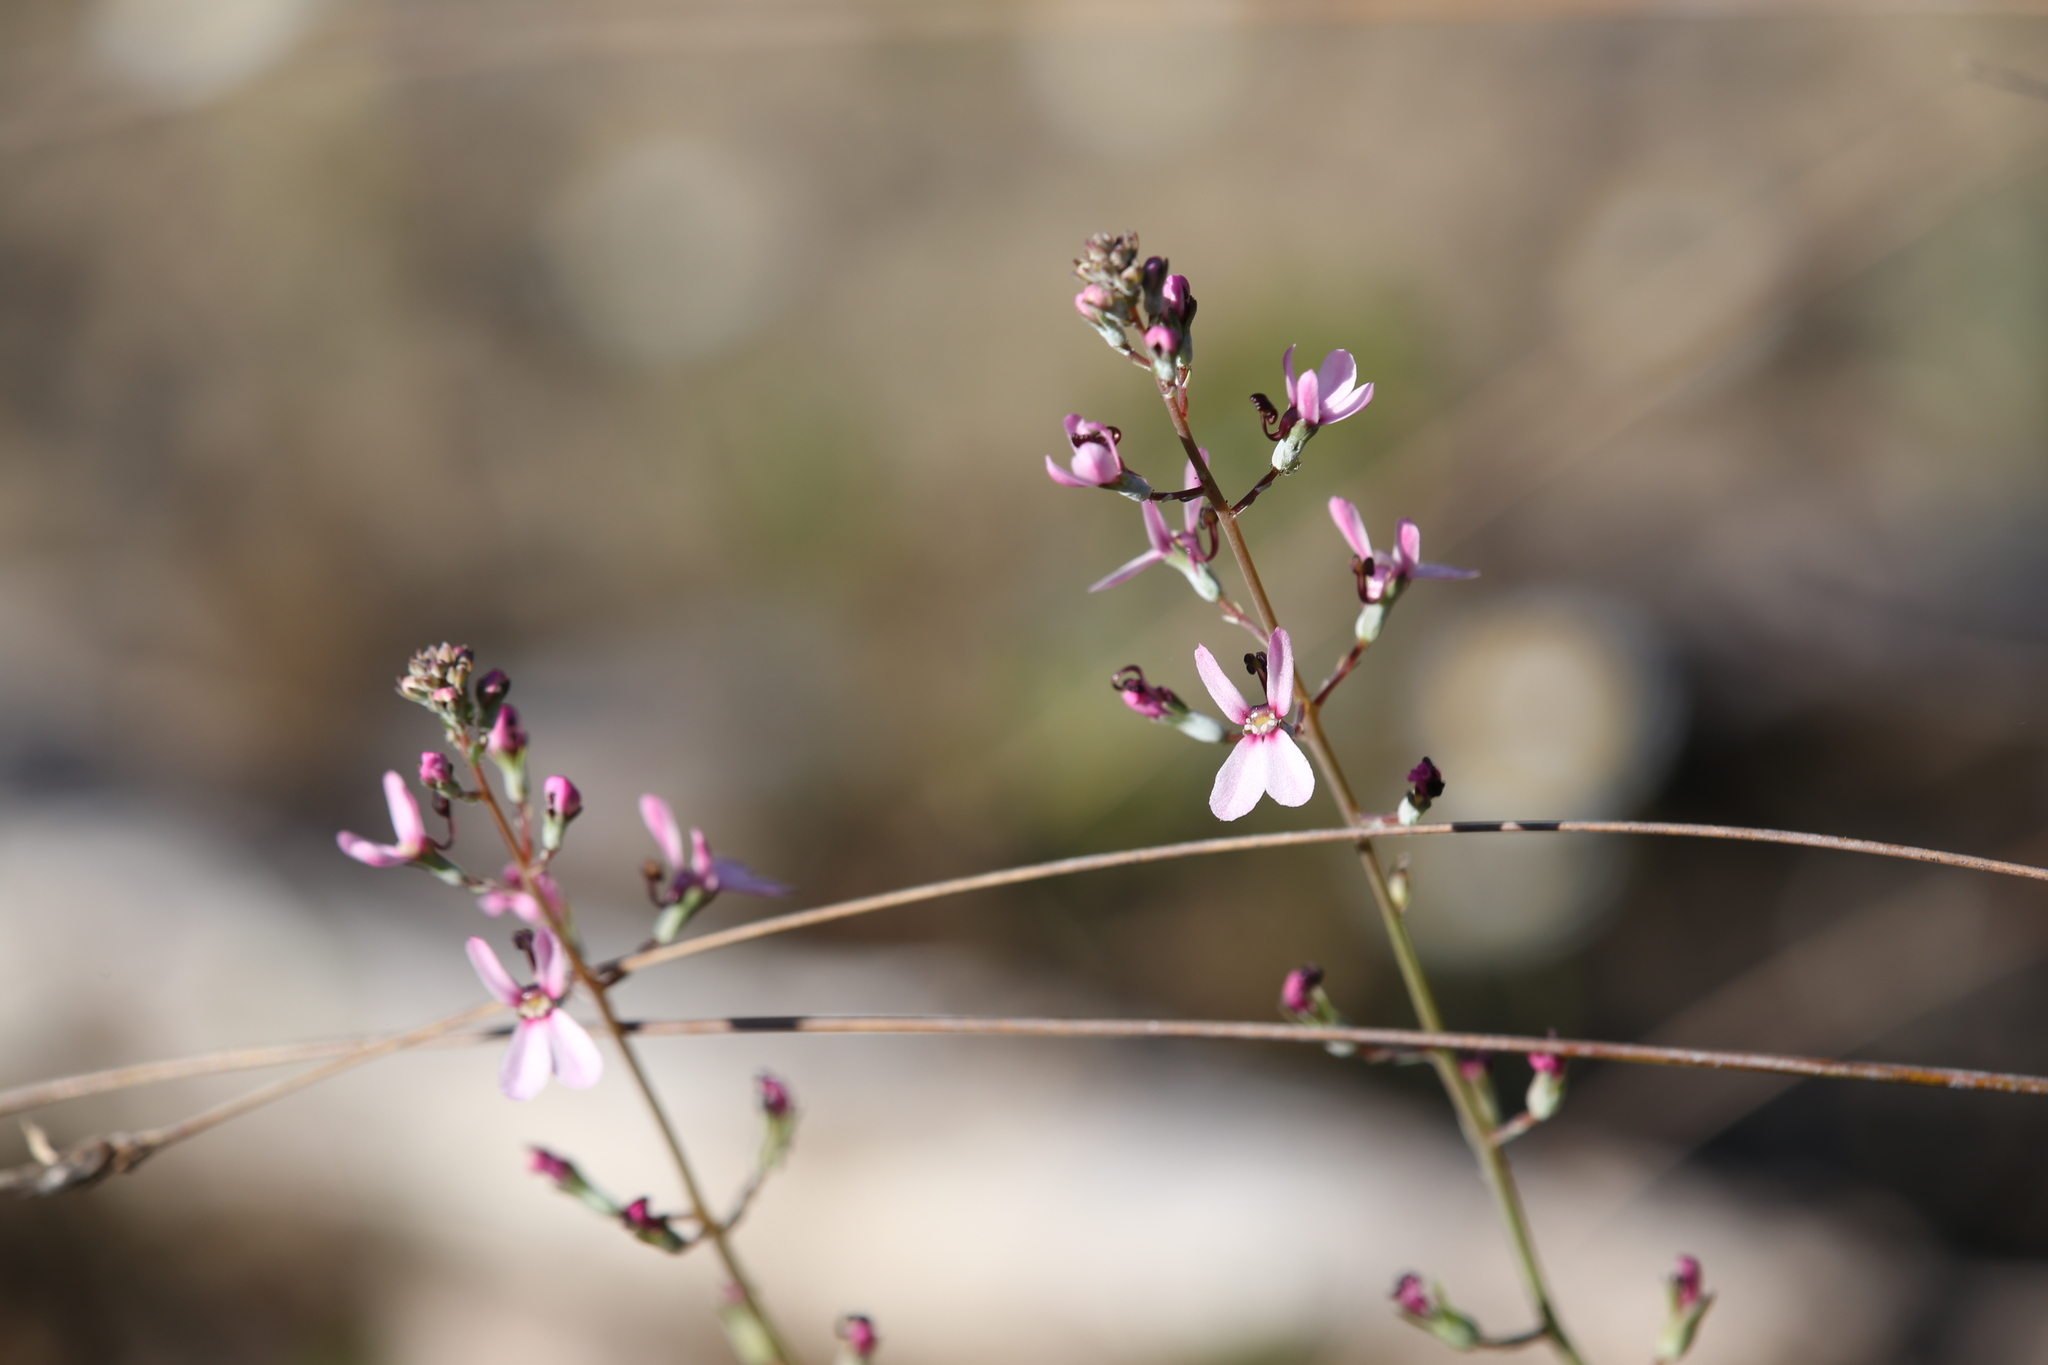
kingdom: Plantae
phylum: Tracheophyta
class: Magnoliopsida
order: Asterales
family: Stylidiaceae
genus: Stylidium
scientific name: Stylidium neurophyllum
